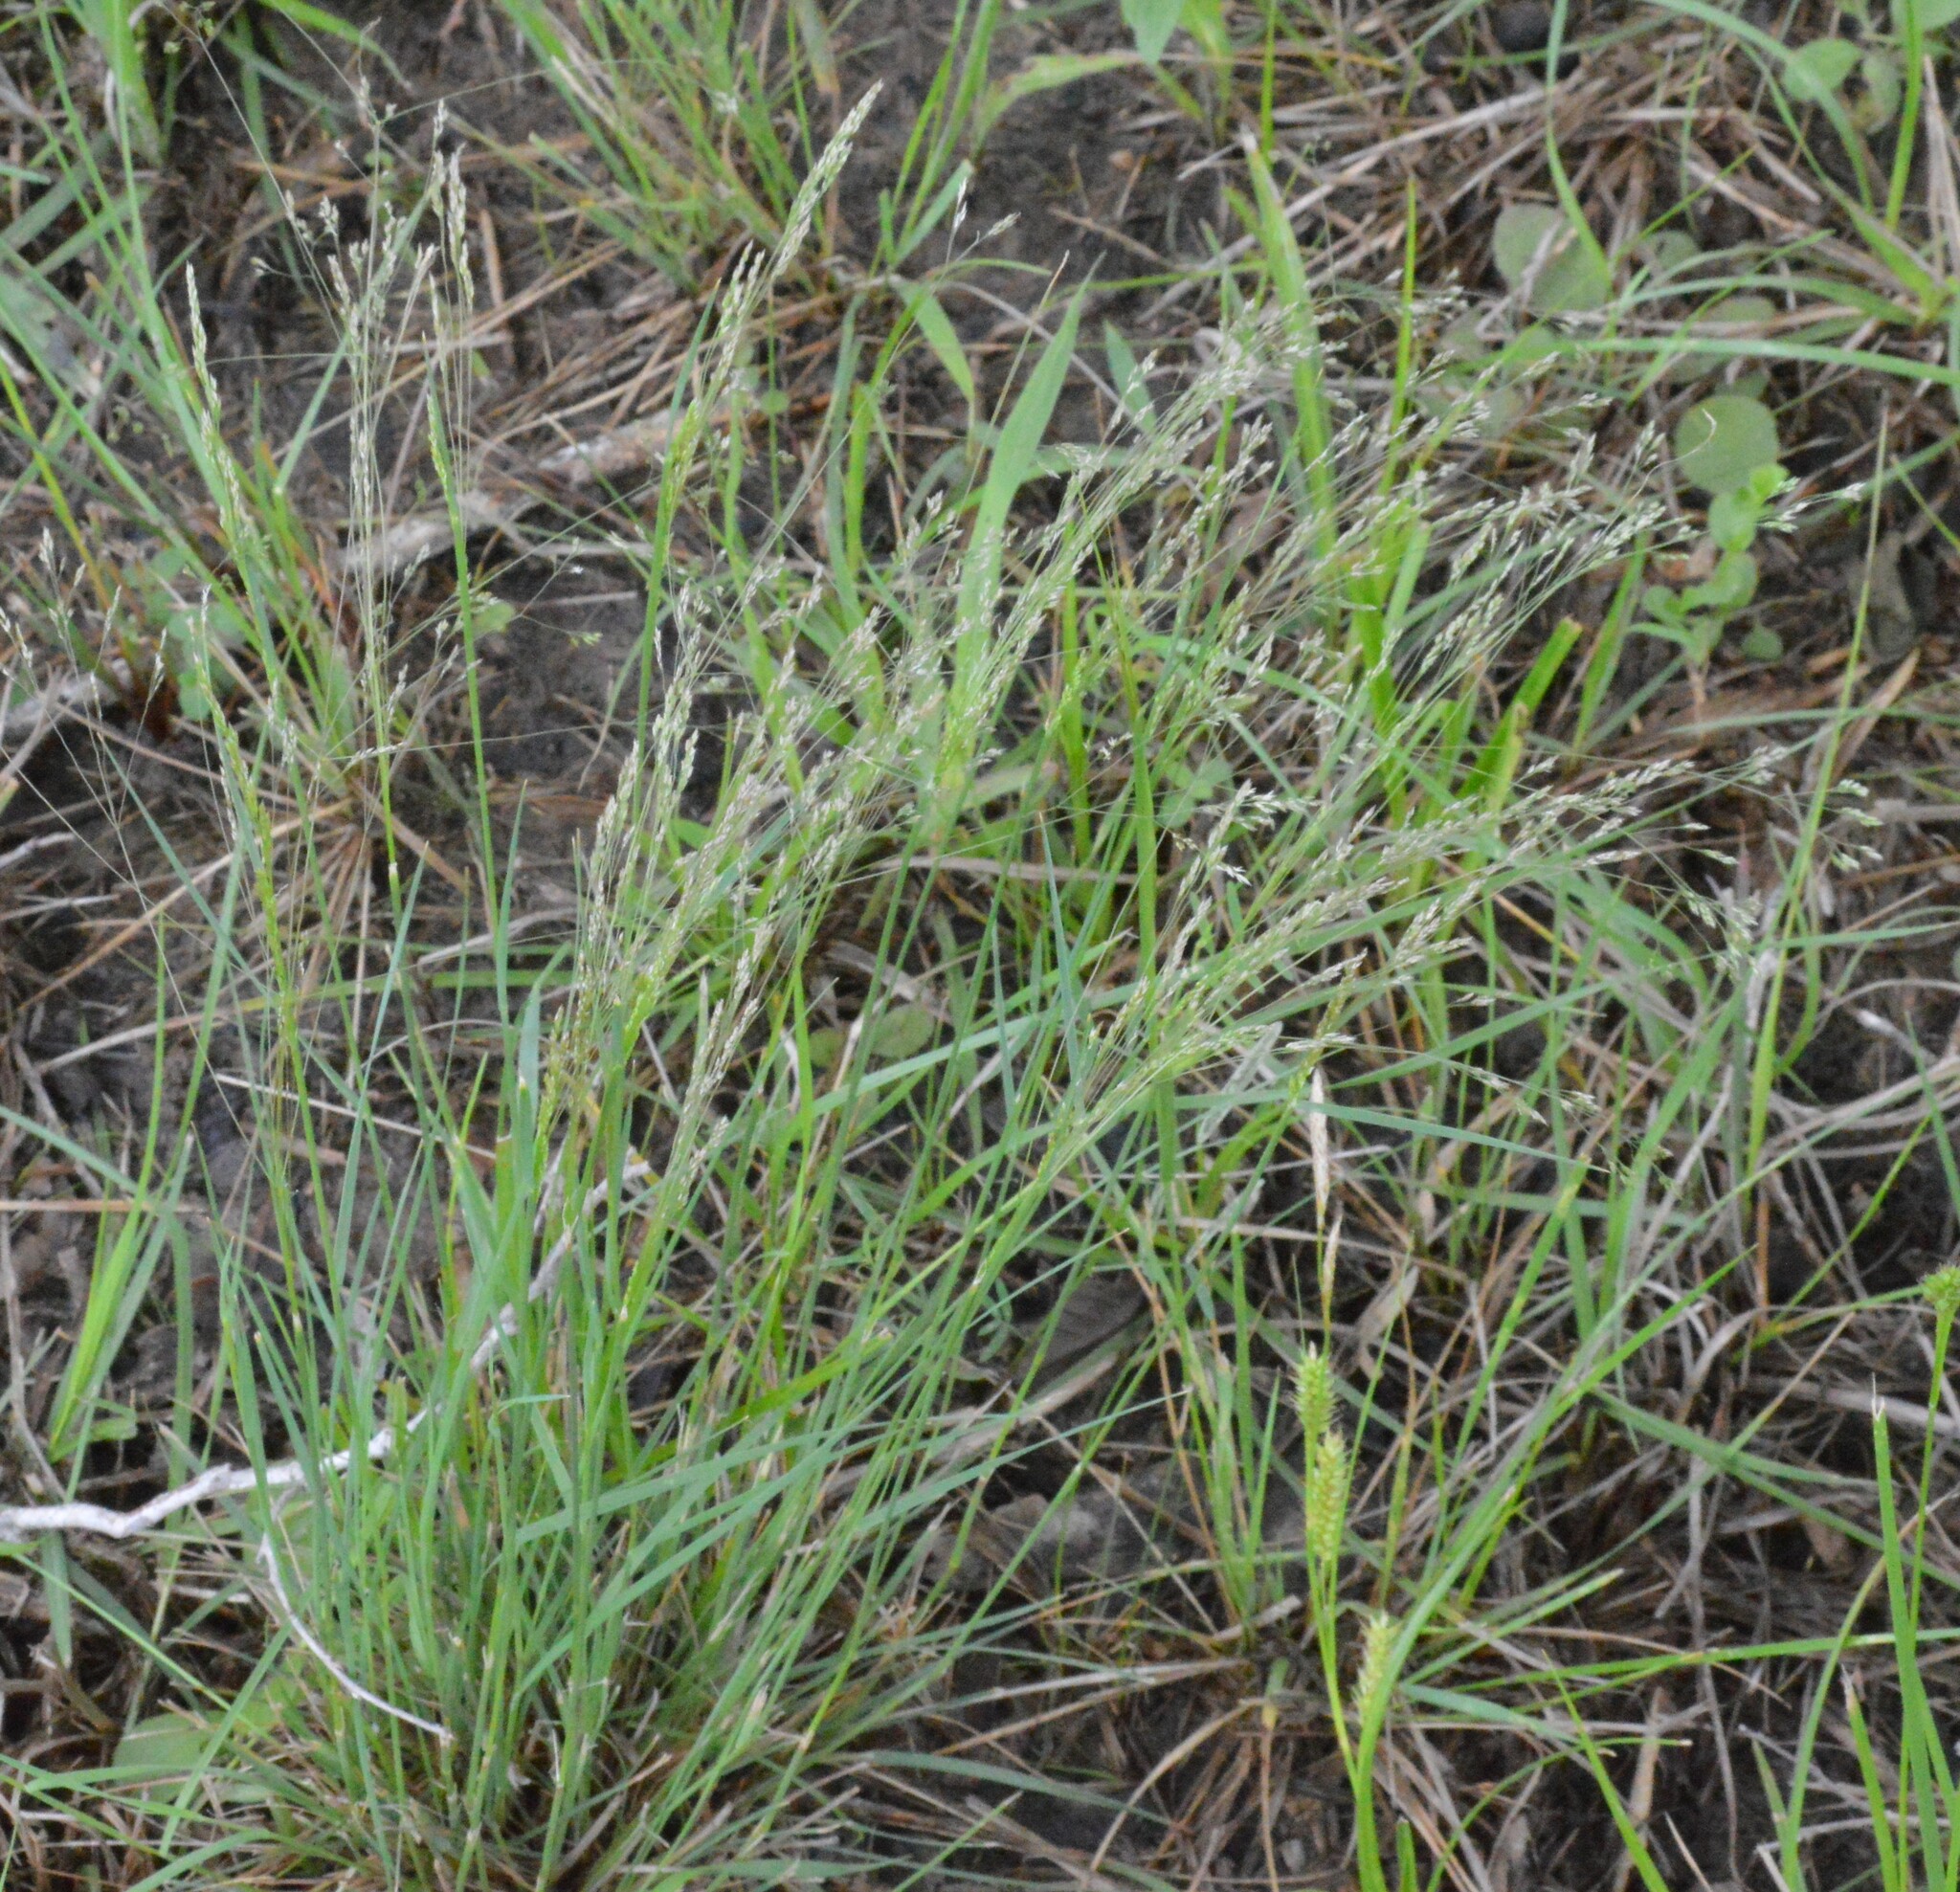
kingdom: Plantae
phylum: Tracheophyta
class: Liliopsida
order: Poales
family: Poaceae
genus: Agrostis
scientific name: Agrostis hyemalis
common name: Small bent
